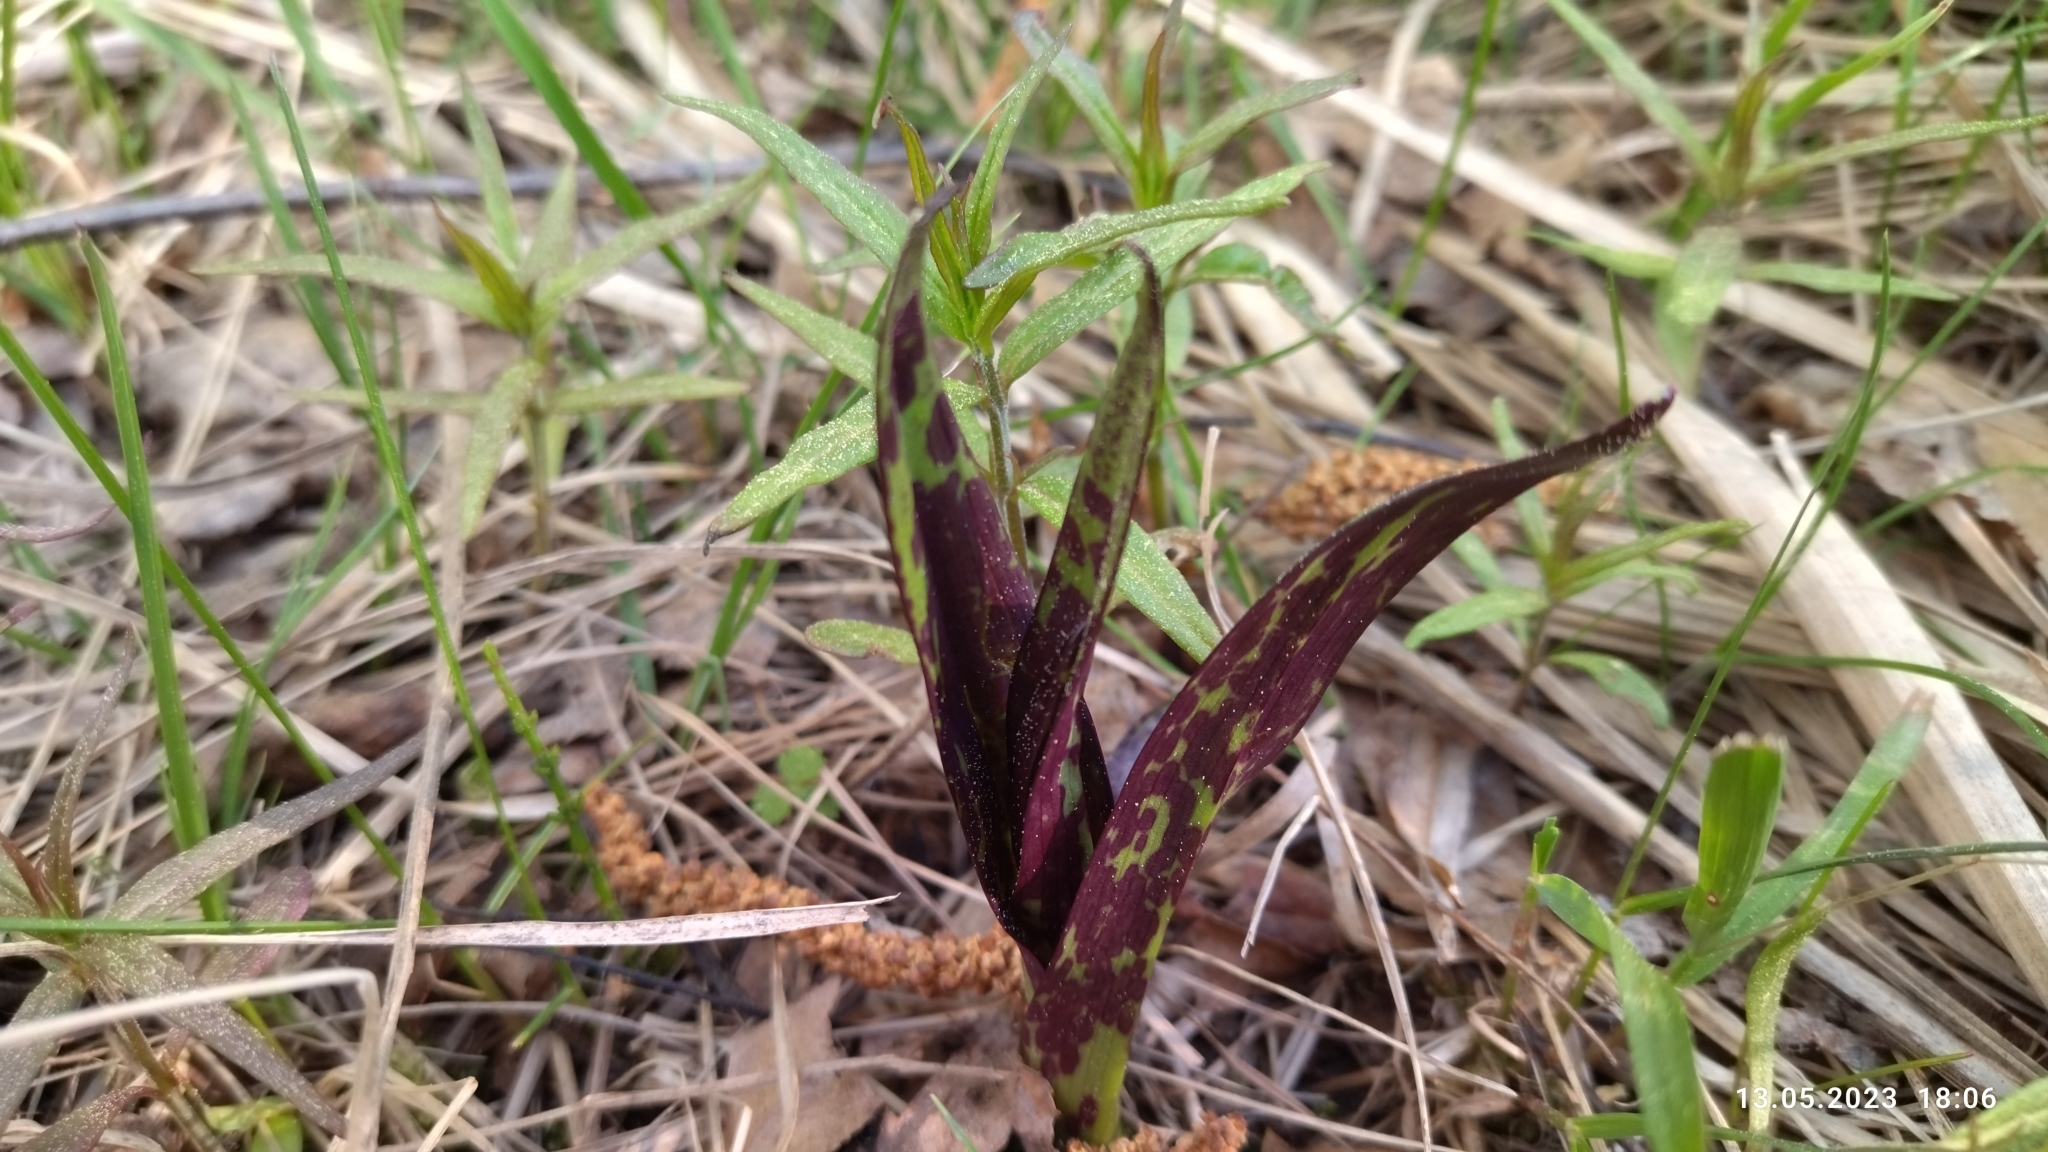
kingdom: Plantae
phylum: Tracheophyta
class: Liliopsida
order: Asparagales
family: Orchidaceae
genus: Dactylorhiza
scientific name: Dactylorhiza incarnata
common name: Early marsh-orchid
